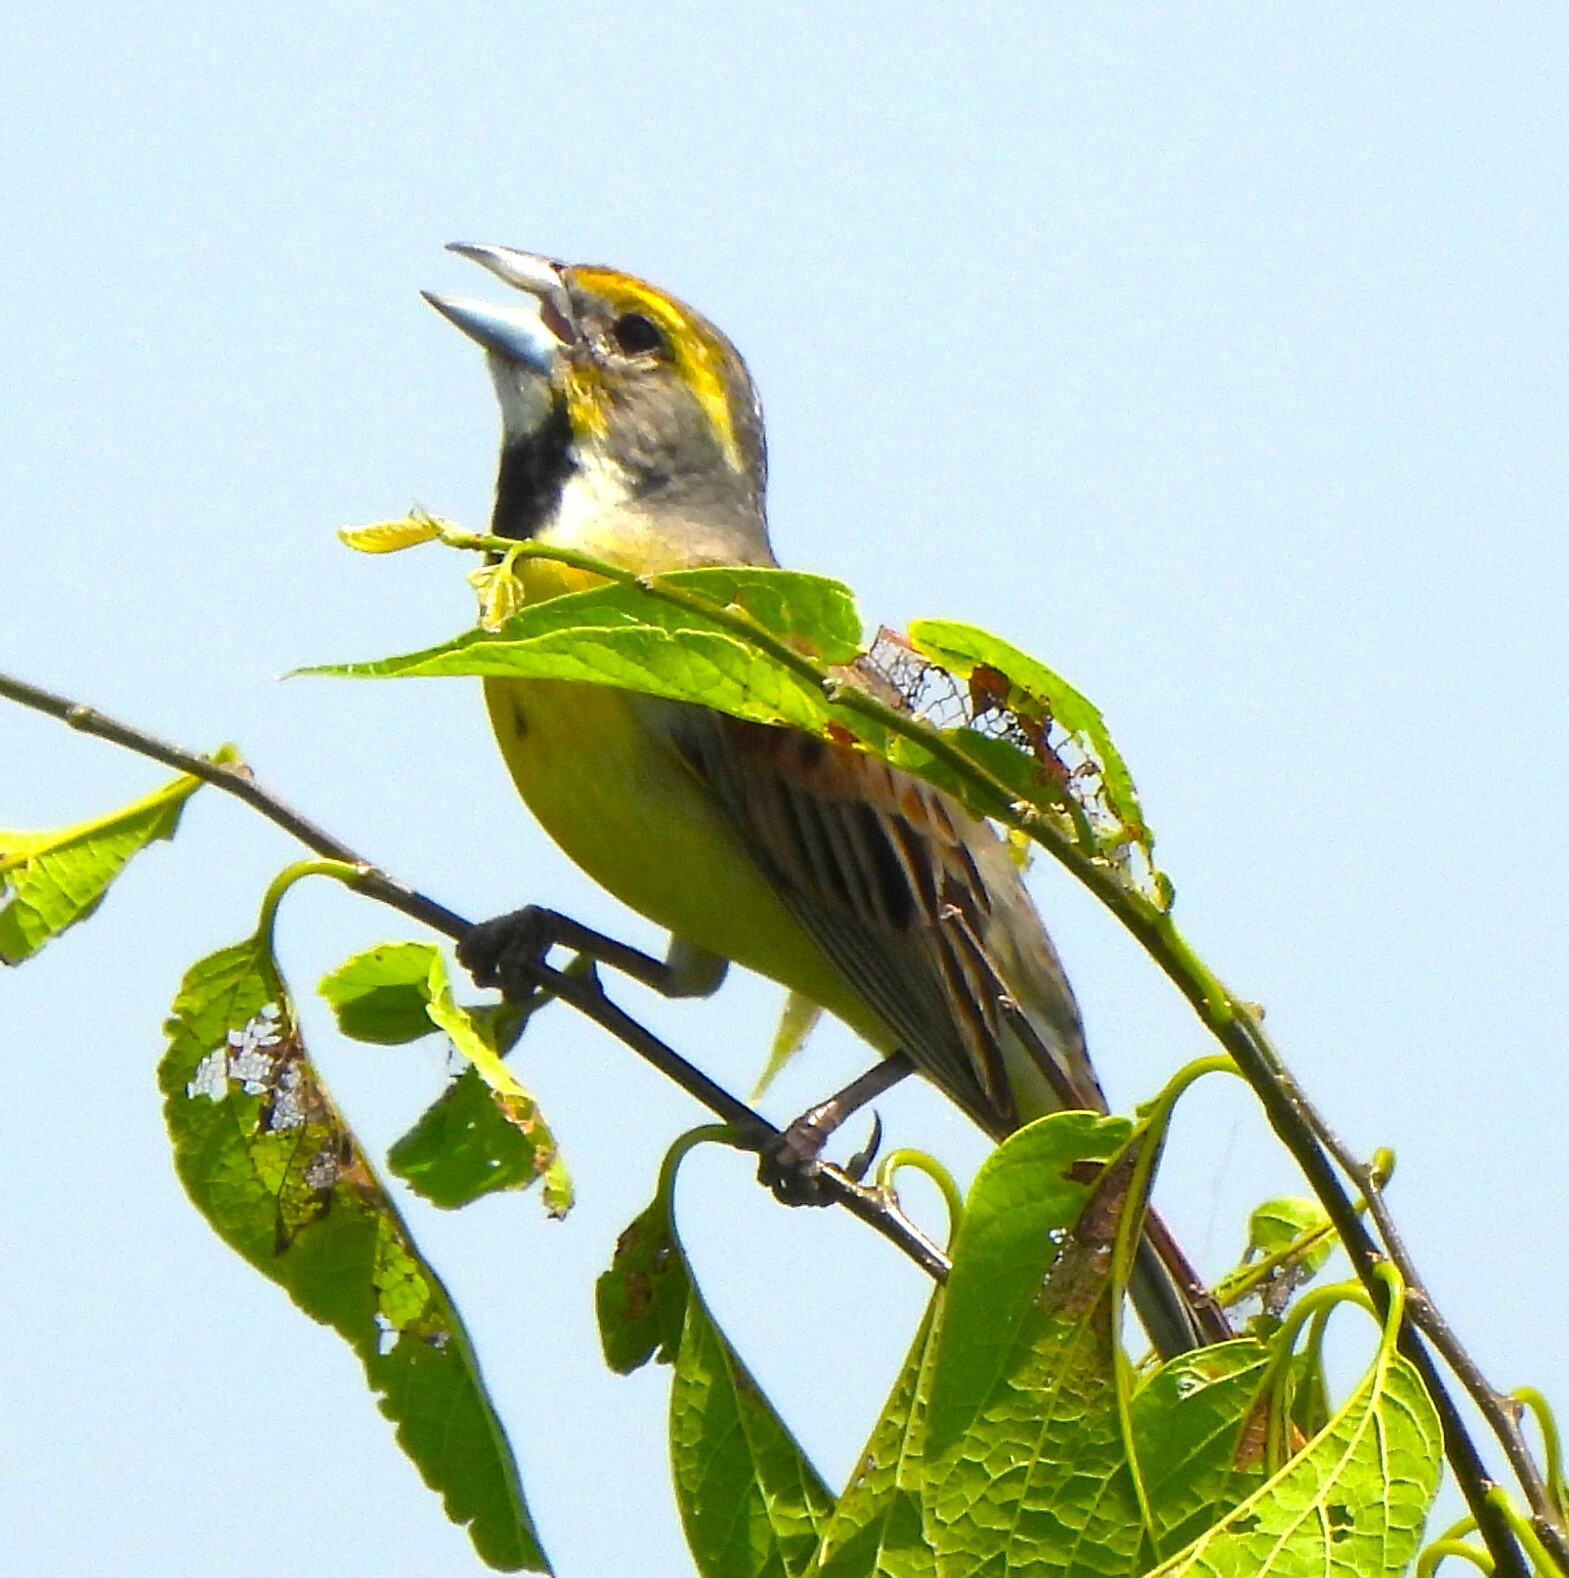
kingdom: Animalia
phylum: Chordata
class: Aves
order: Passeriformes
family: Cardinalidae
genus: Spiza
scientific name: Spiza americana
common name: Dickcissel
